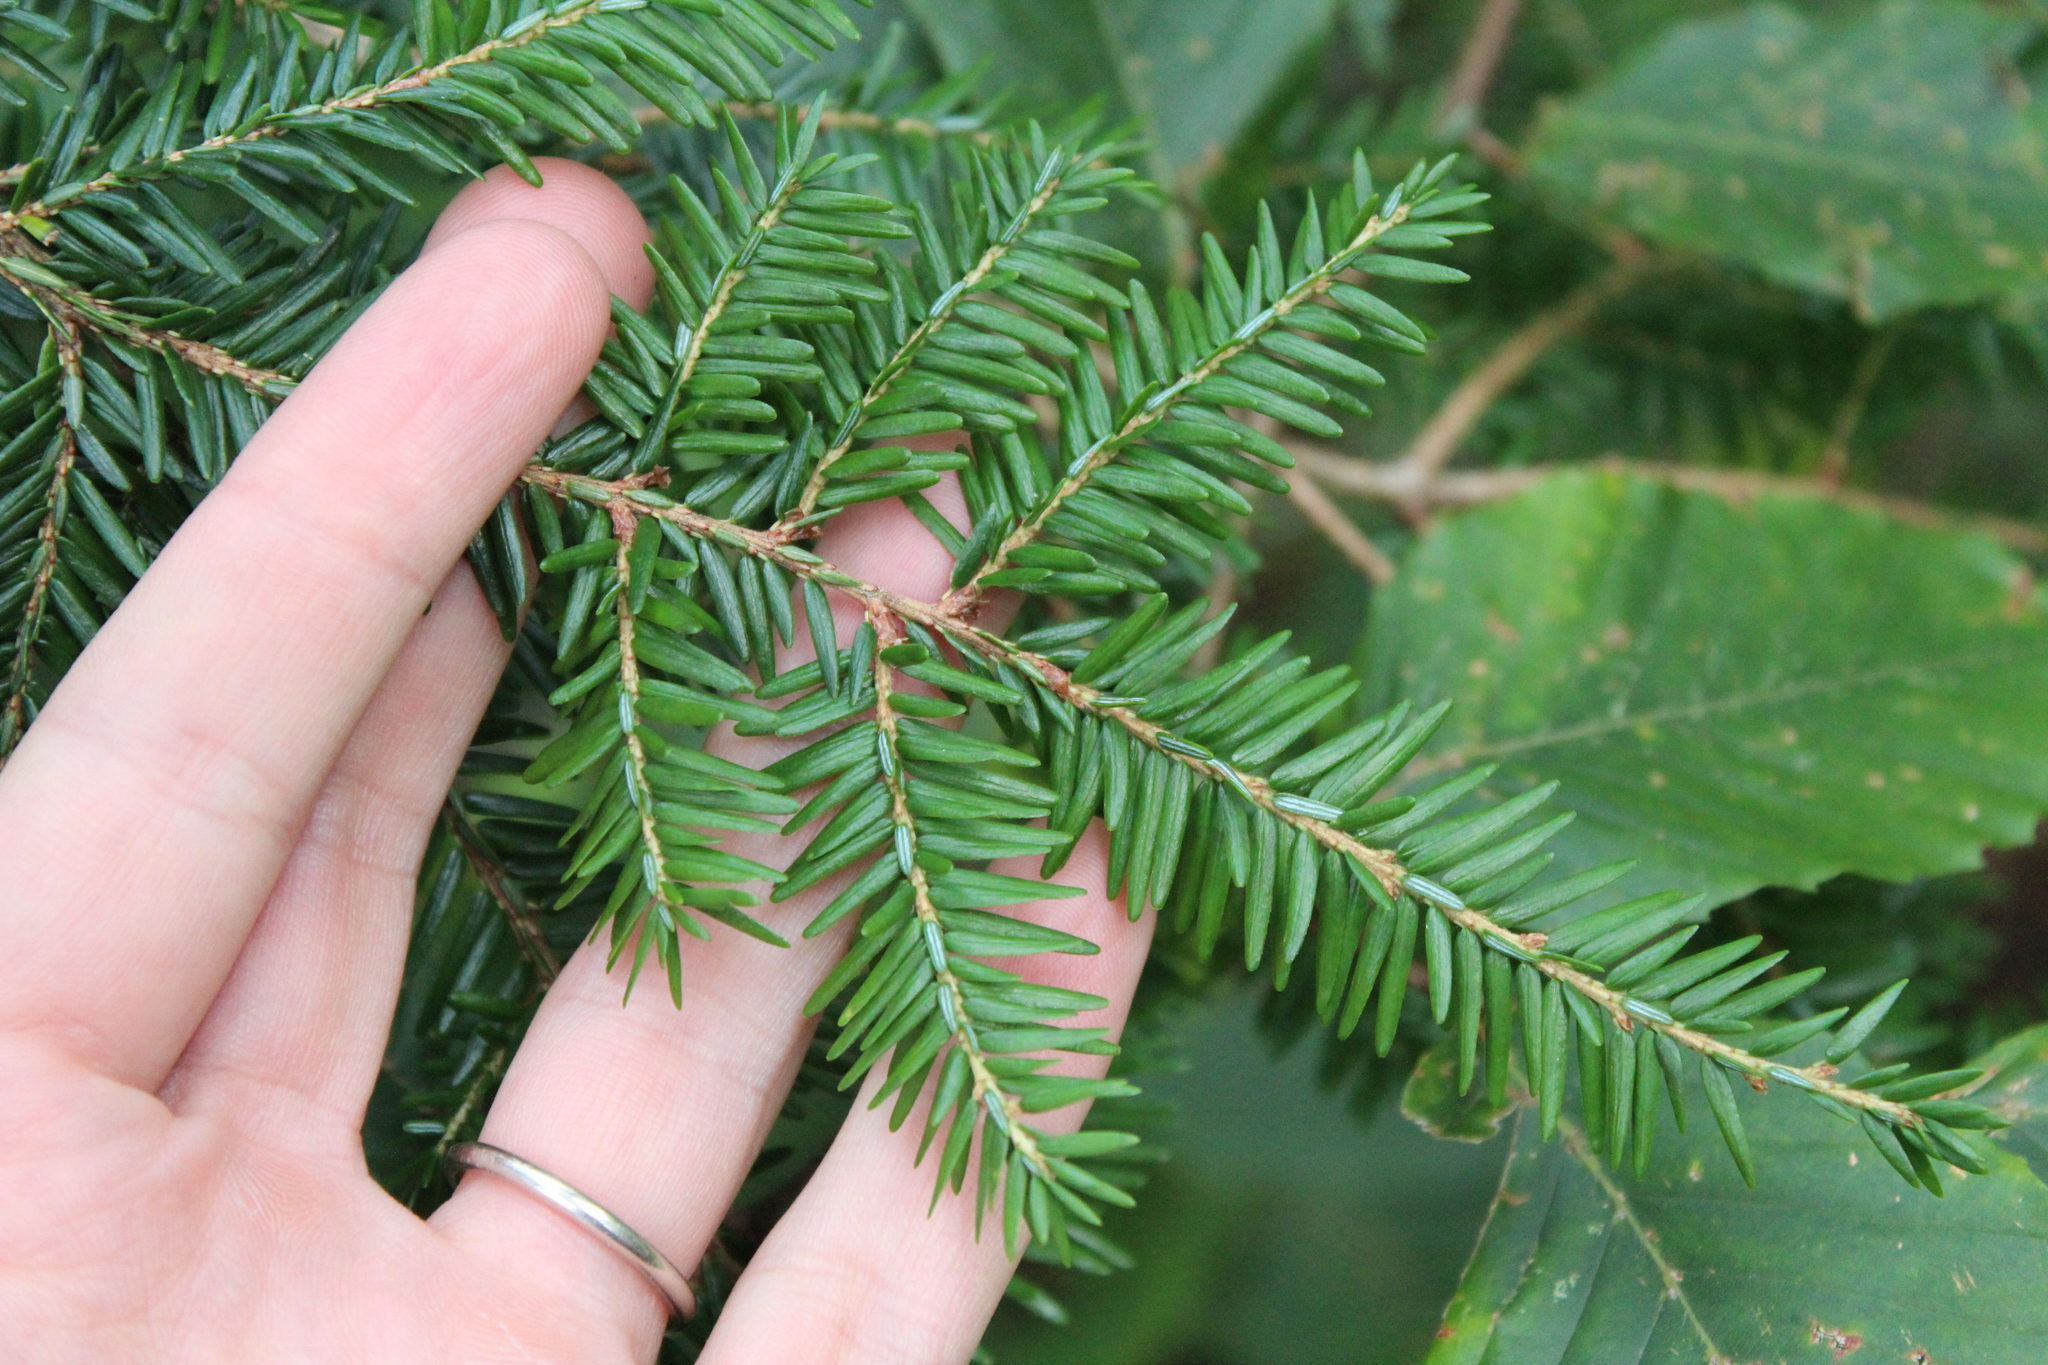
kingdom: Plantae
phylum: Tracheophyta
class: Pinopsida
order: Pinales
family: Pinaceae
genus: Tsuga
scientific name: Tsuga canadensis
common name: Eastern hemlock
